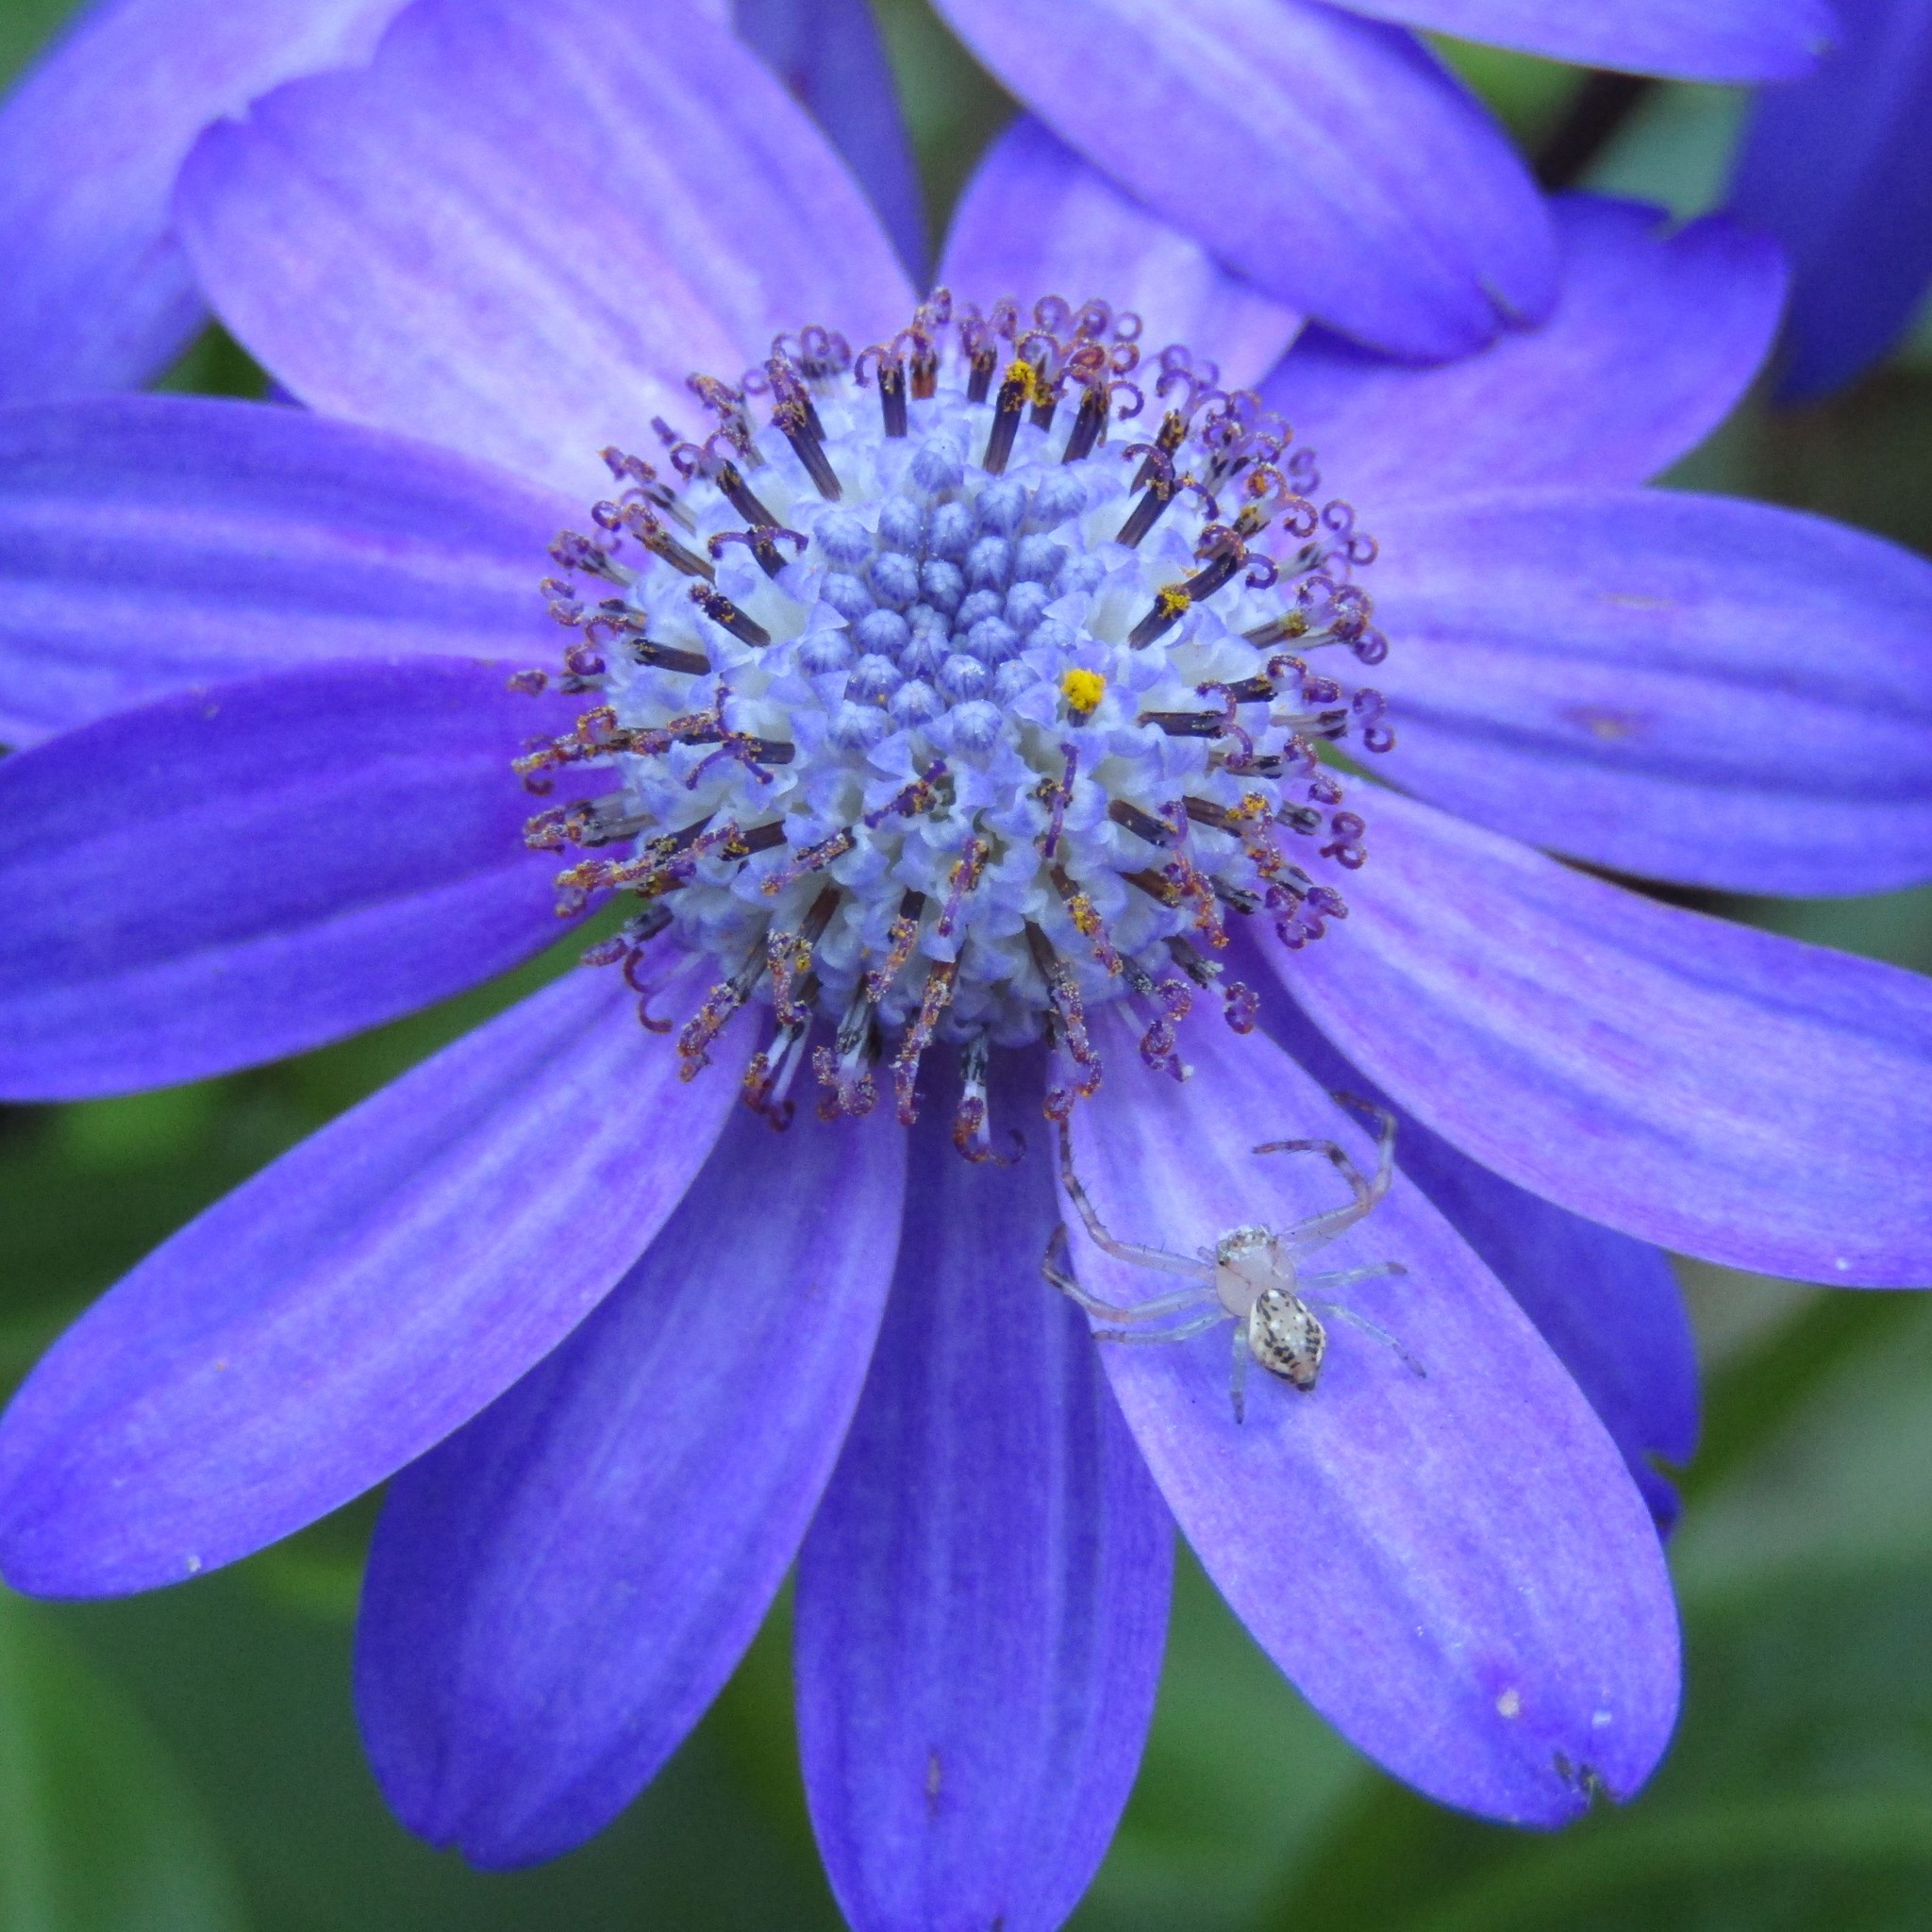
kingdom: Animalia
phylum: Arthropoda
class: Arachnida
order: Araneae
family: Thomisidae
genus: Diaea
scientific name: Diaea ambara
